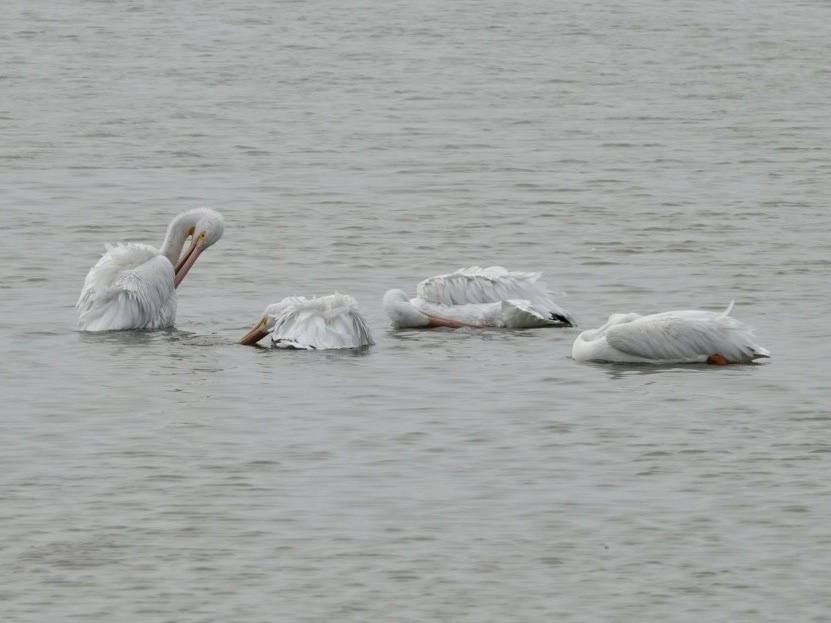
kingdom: Animalia
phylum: Chordata
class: Aves
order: Pelecaniformes
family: Pelecanidae
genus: Pelecanus
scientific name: Pelecanus erythrorhynchos
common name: American white pelican
